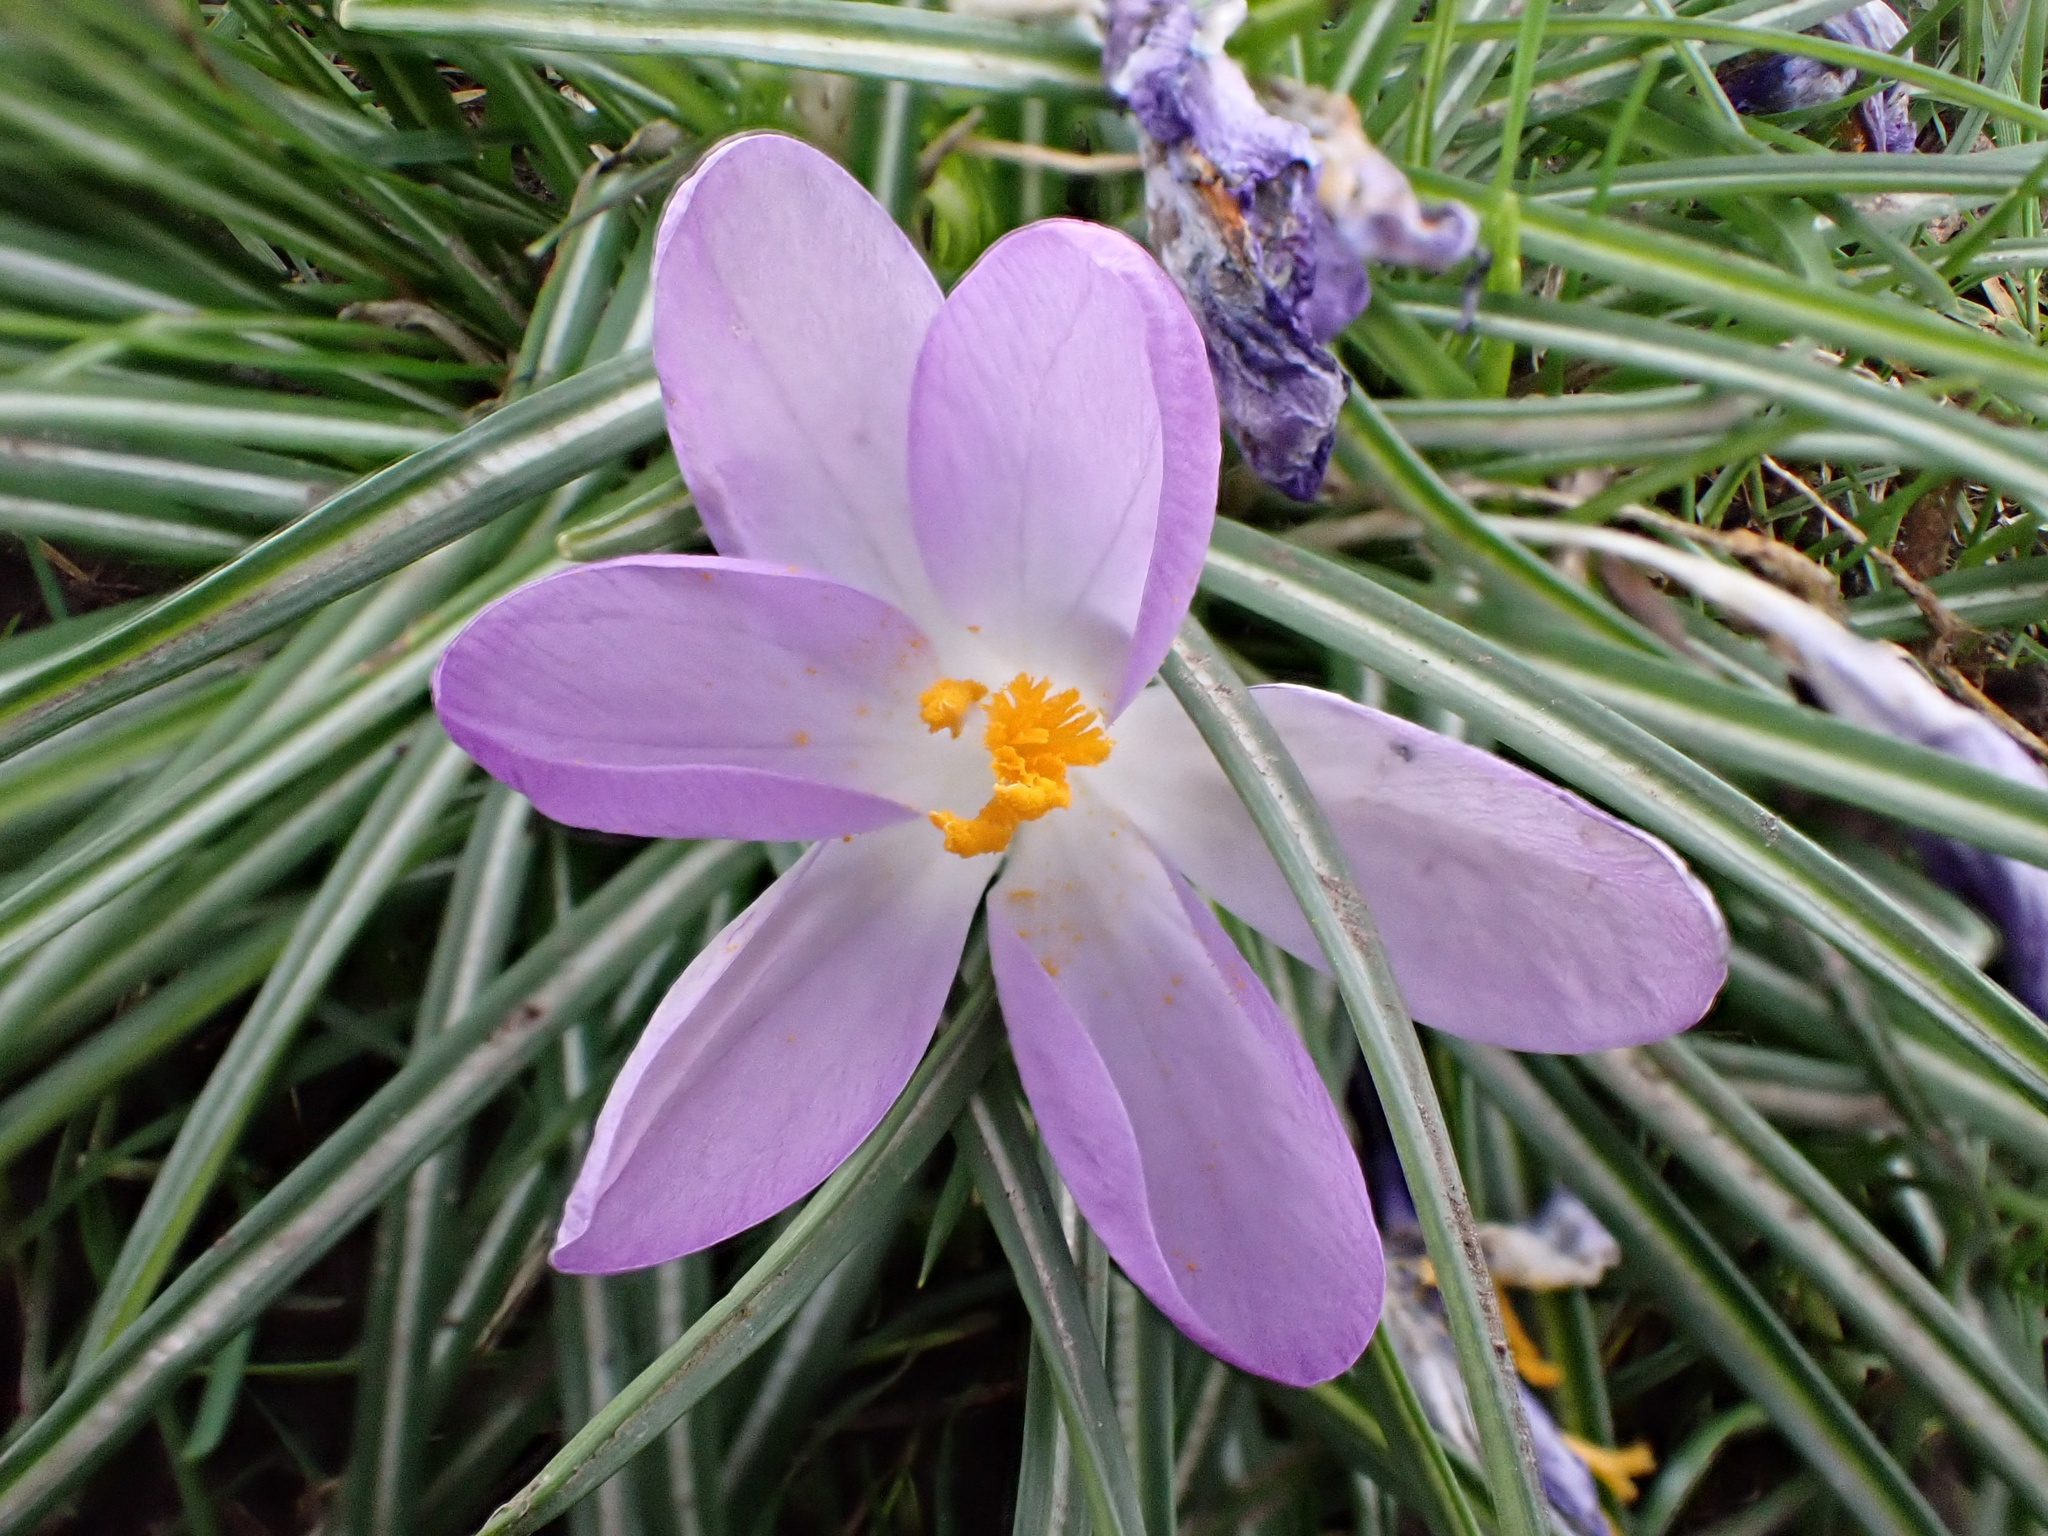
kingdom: Plantae
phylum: Tracheophyta
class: Liliopsida
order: Asparagales
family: Iridaceae
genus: Crocus
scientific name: Crocus tommasinianus
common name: Early crocus
